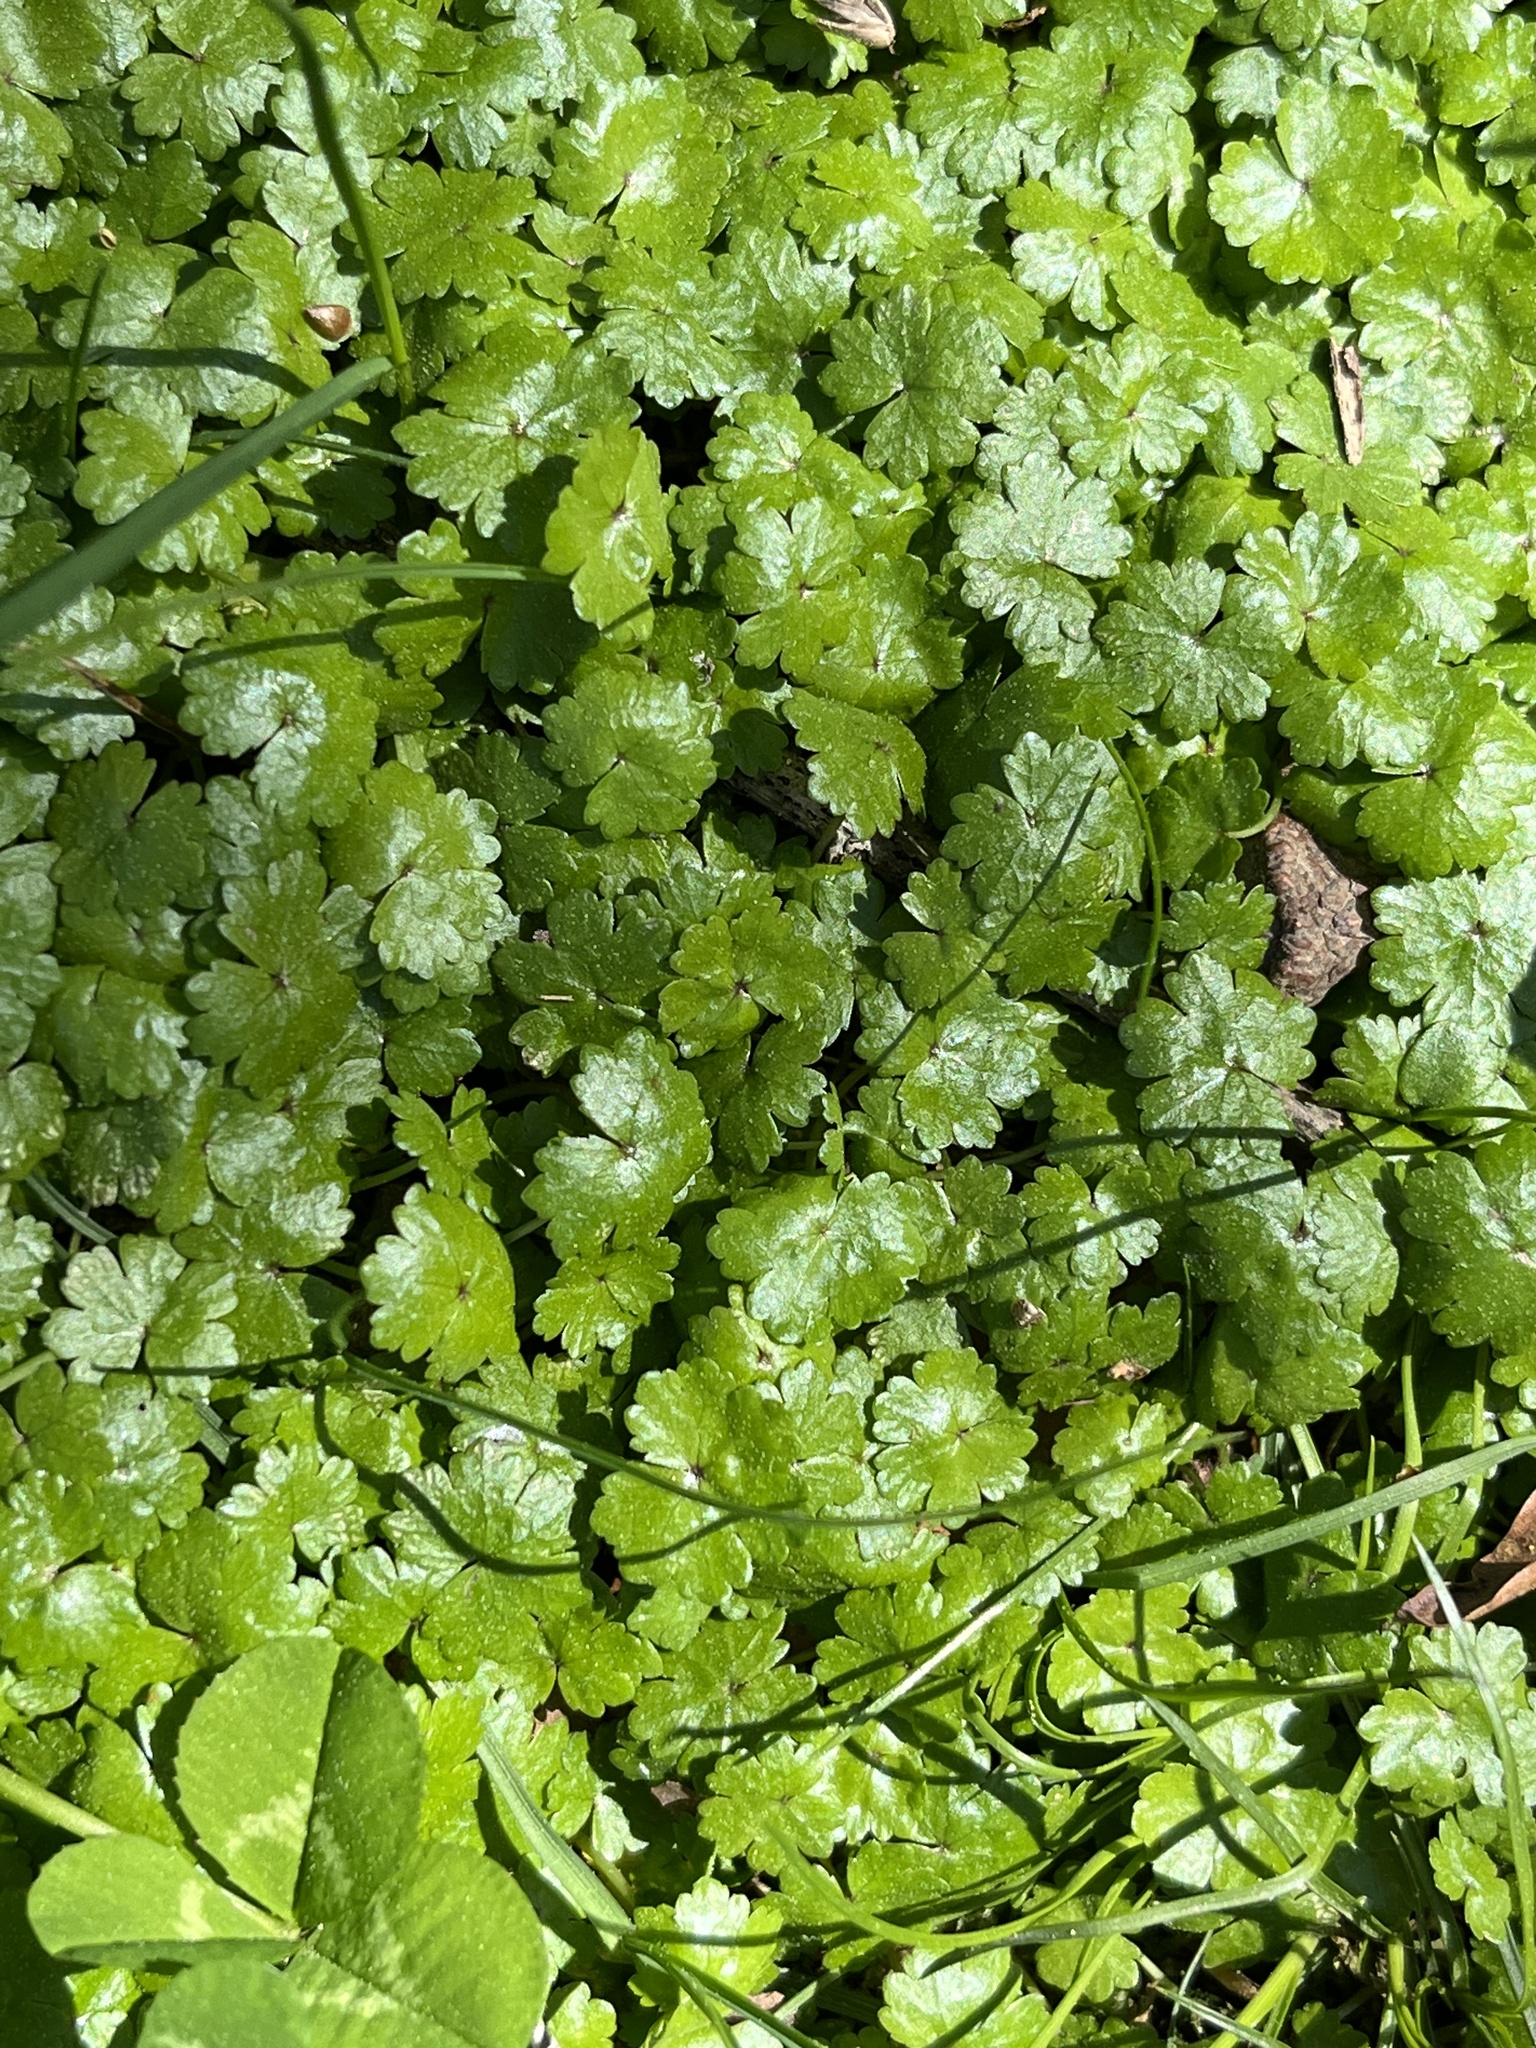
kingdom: Plantae
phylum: Tracheophyta
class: Magnoliopsida
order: Apiales
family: Araliaceae
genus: Hydrocotyle
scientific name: Hydrocotyle sibthorpioides
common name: Lawn marshpennywort
